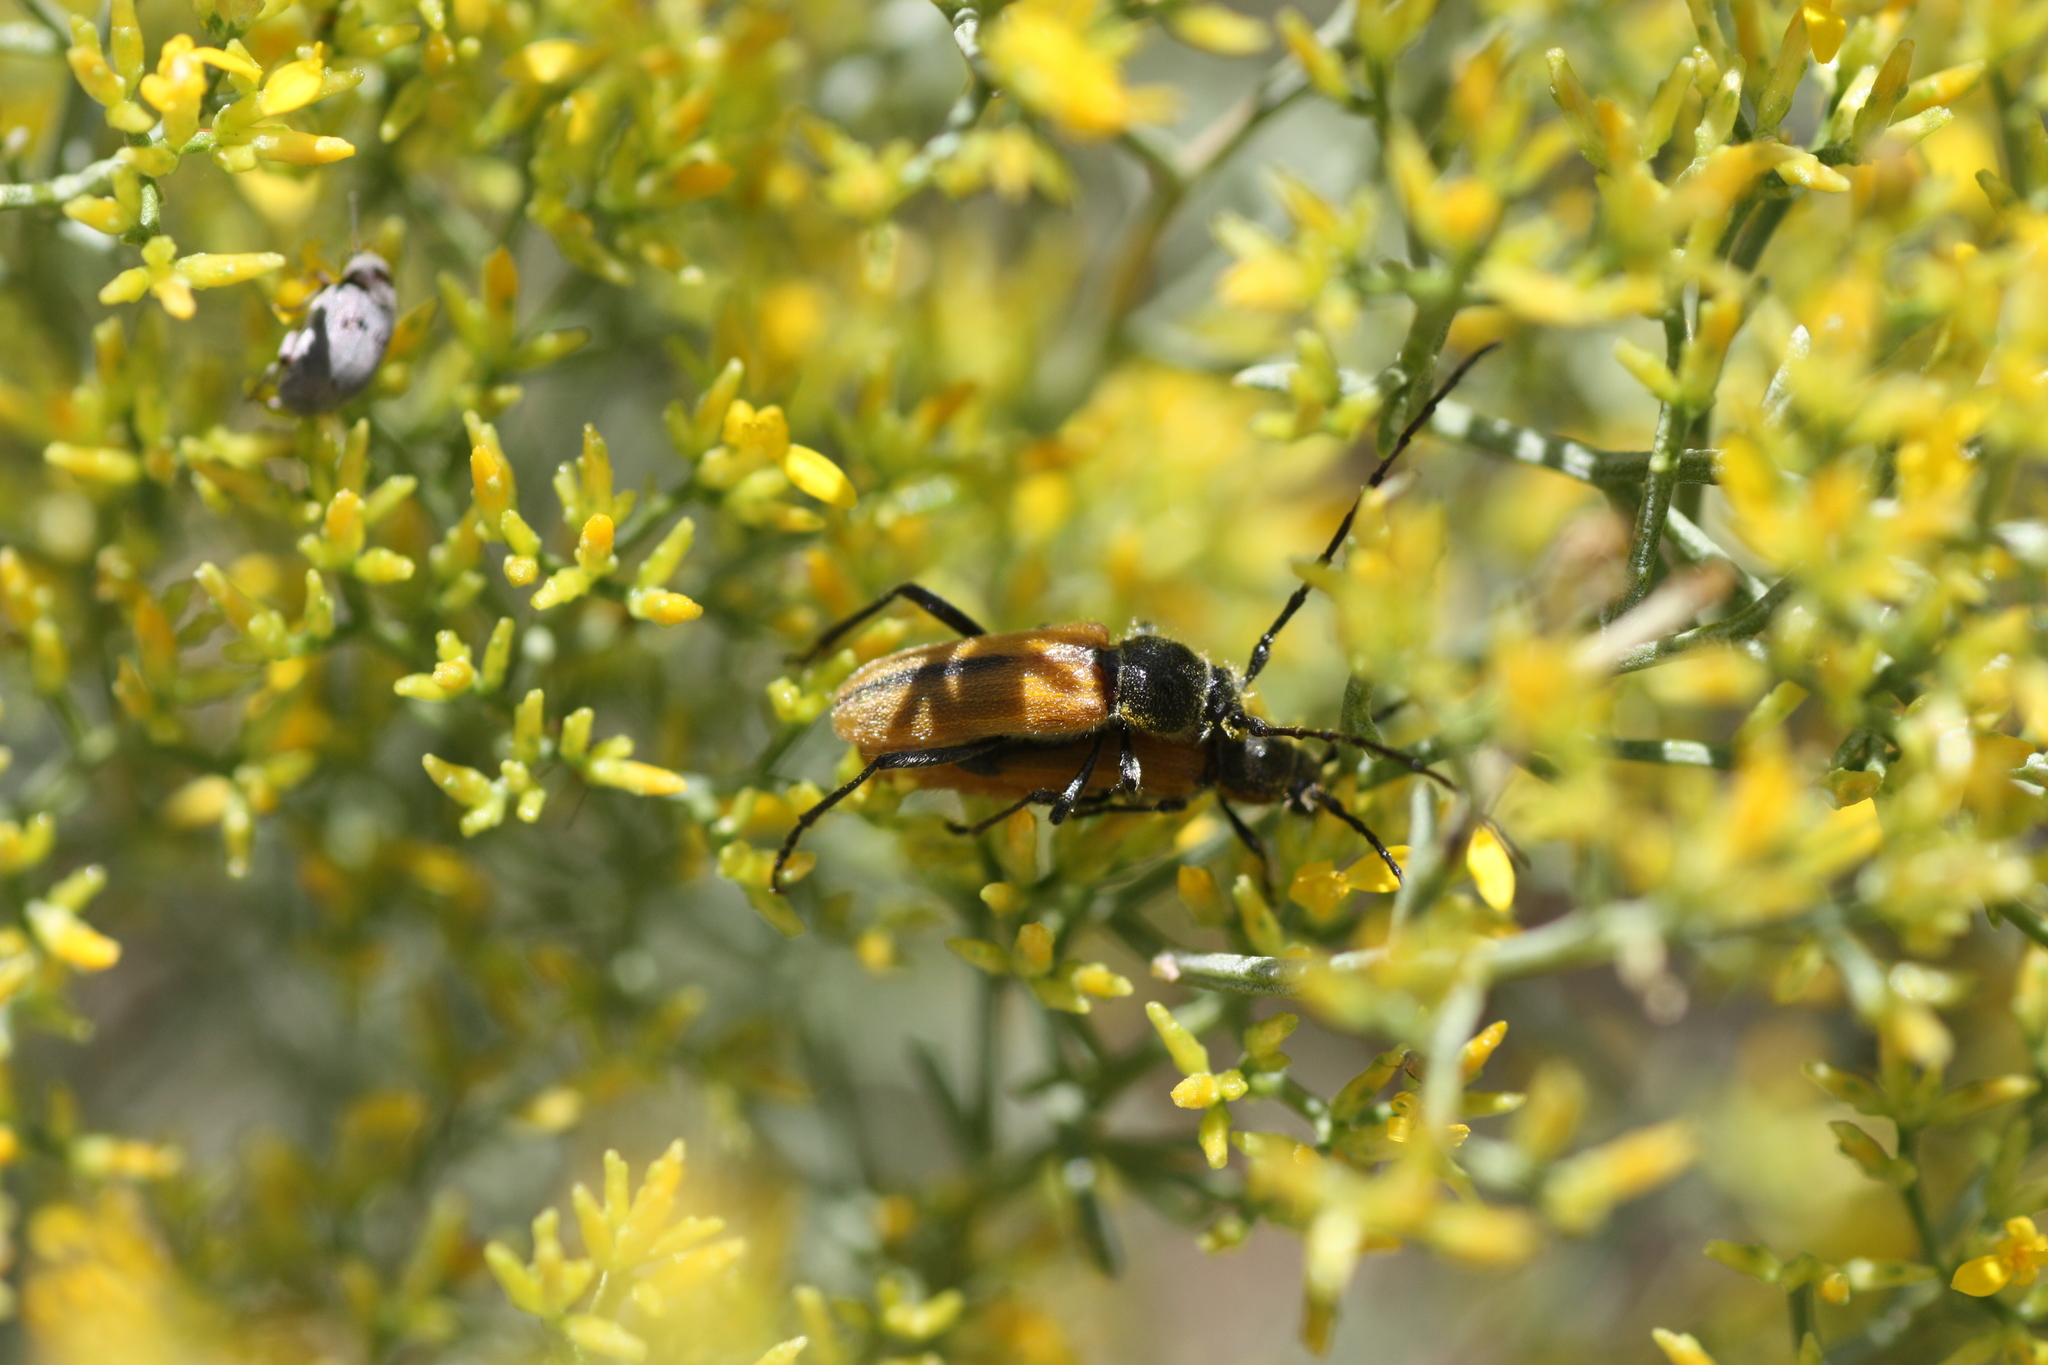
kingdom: Animalia
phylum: Arthropoda
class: Insecta
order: Coleoptera
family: Cerambycidae
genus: Crossidius
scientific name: Crossidius pulchellus
